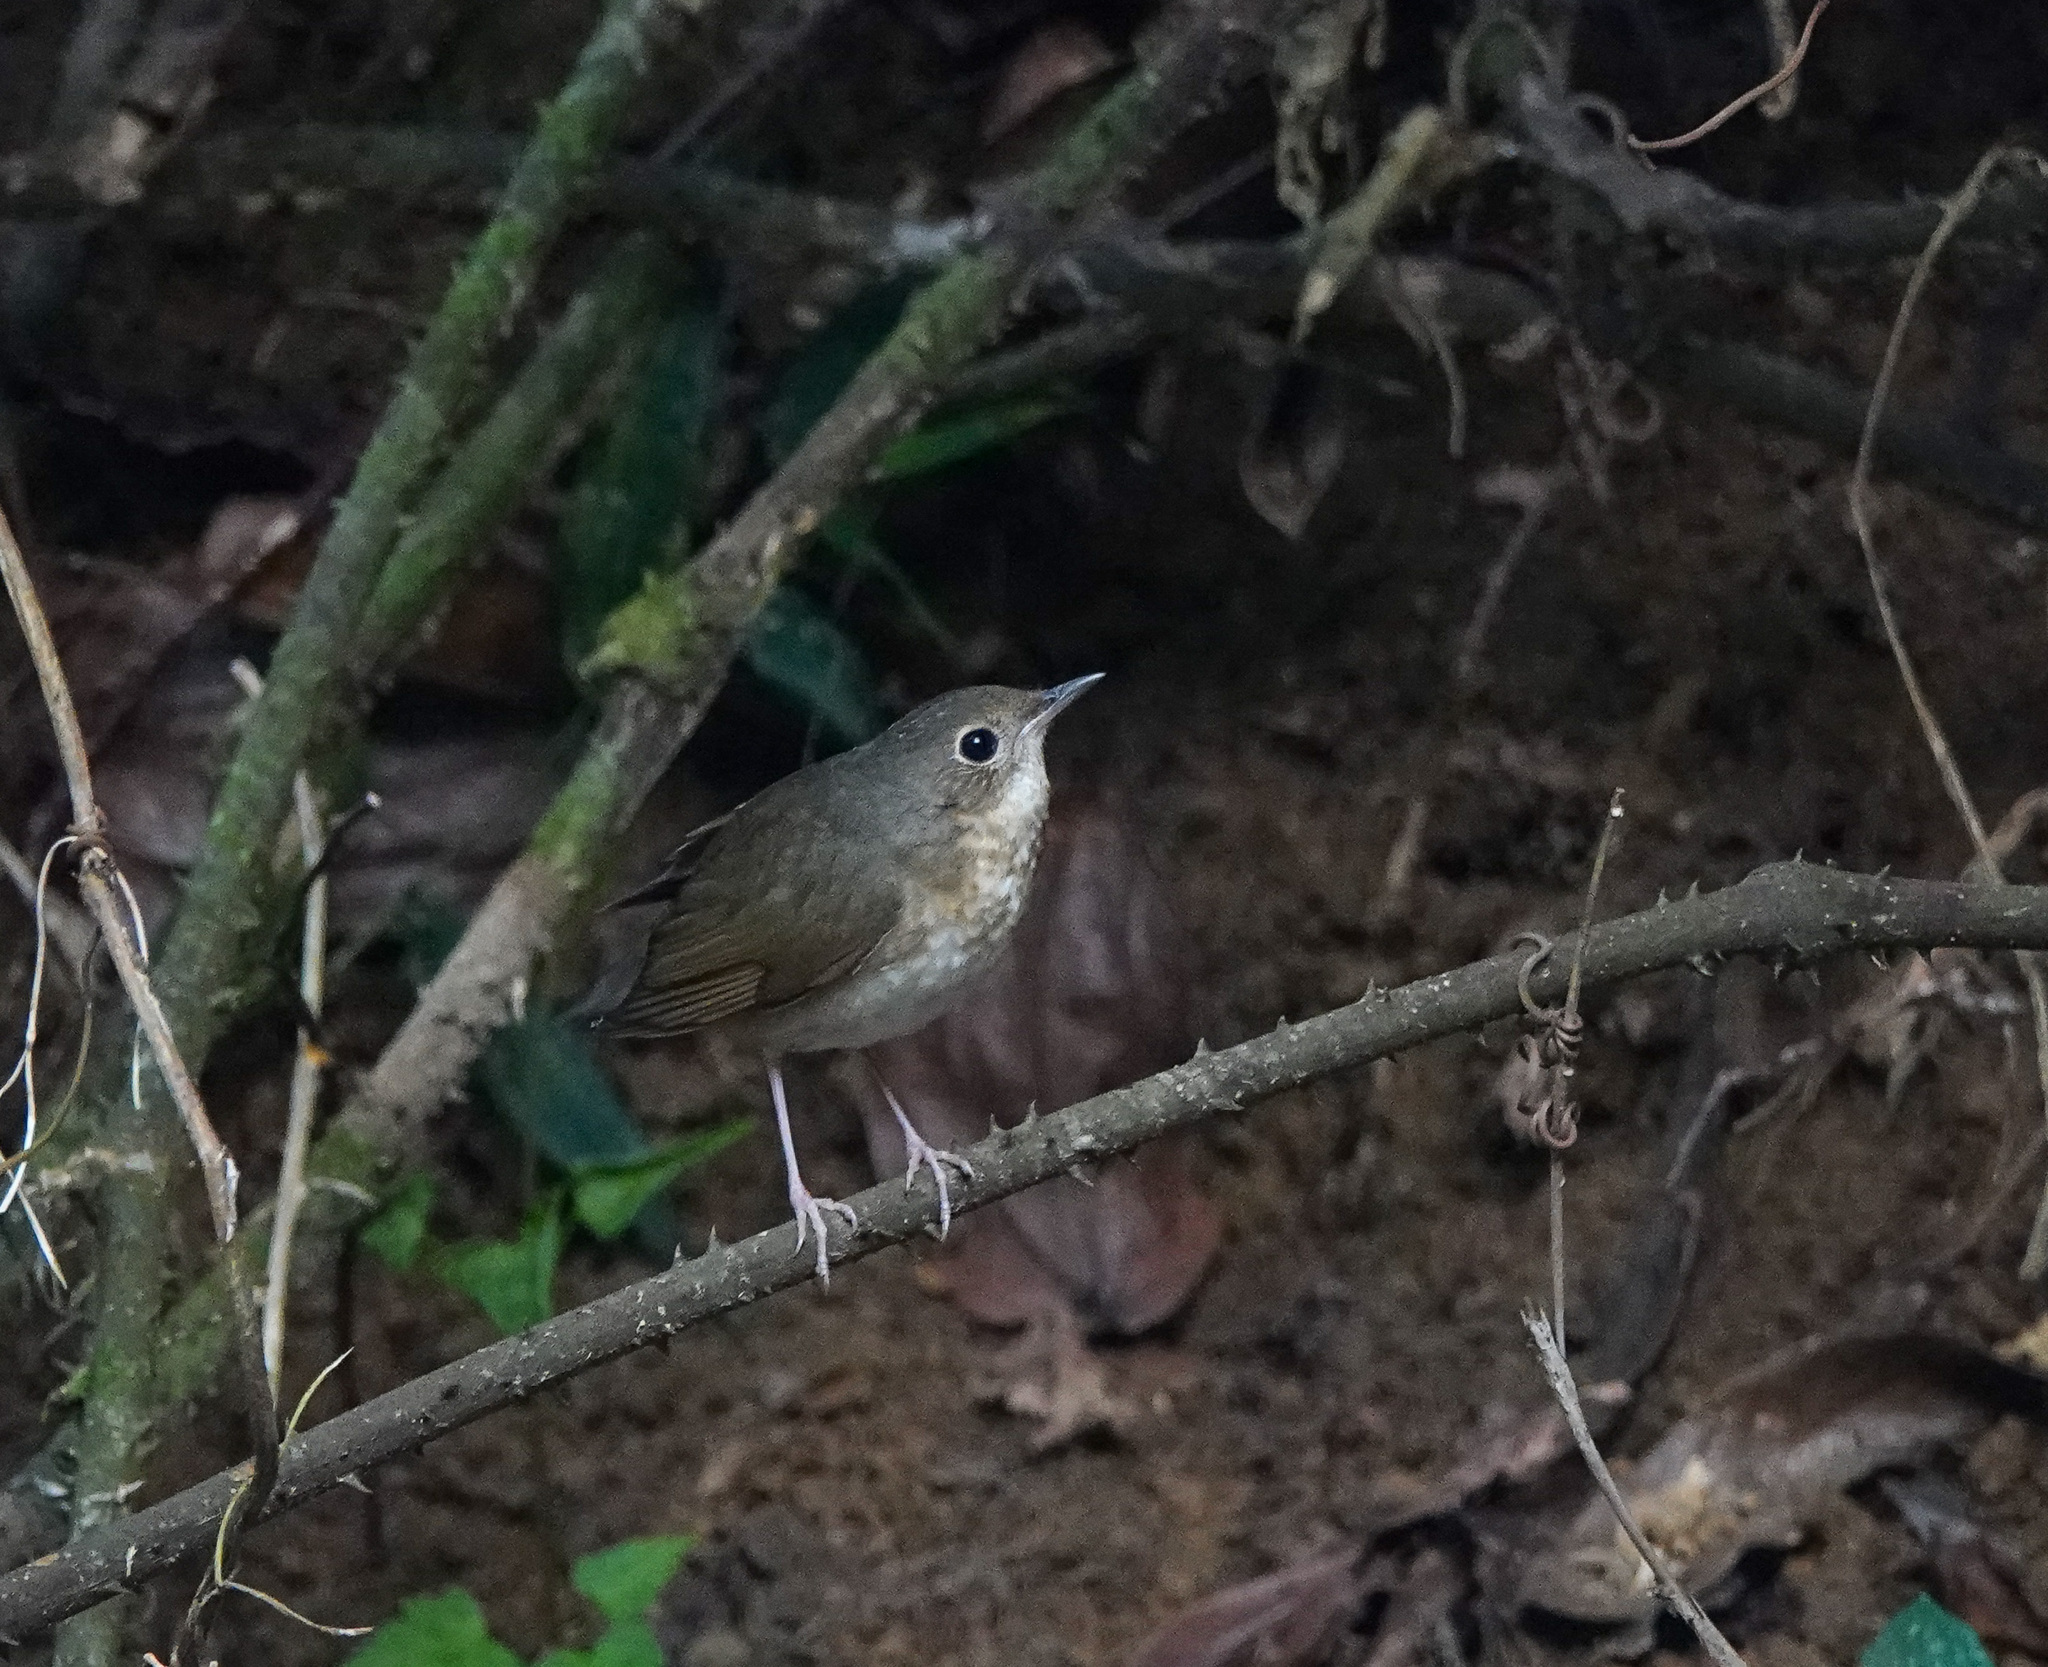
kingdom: Animalia
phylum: Chordata
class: Aves
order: Passeriformes
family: Muscicapidae
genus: Luscinia
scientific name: Luscinia cyane
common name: Siberian blue robin
